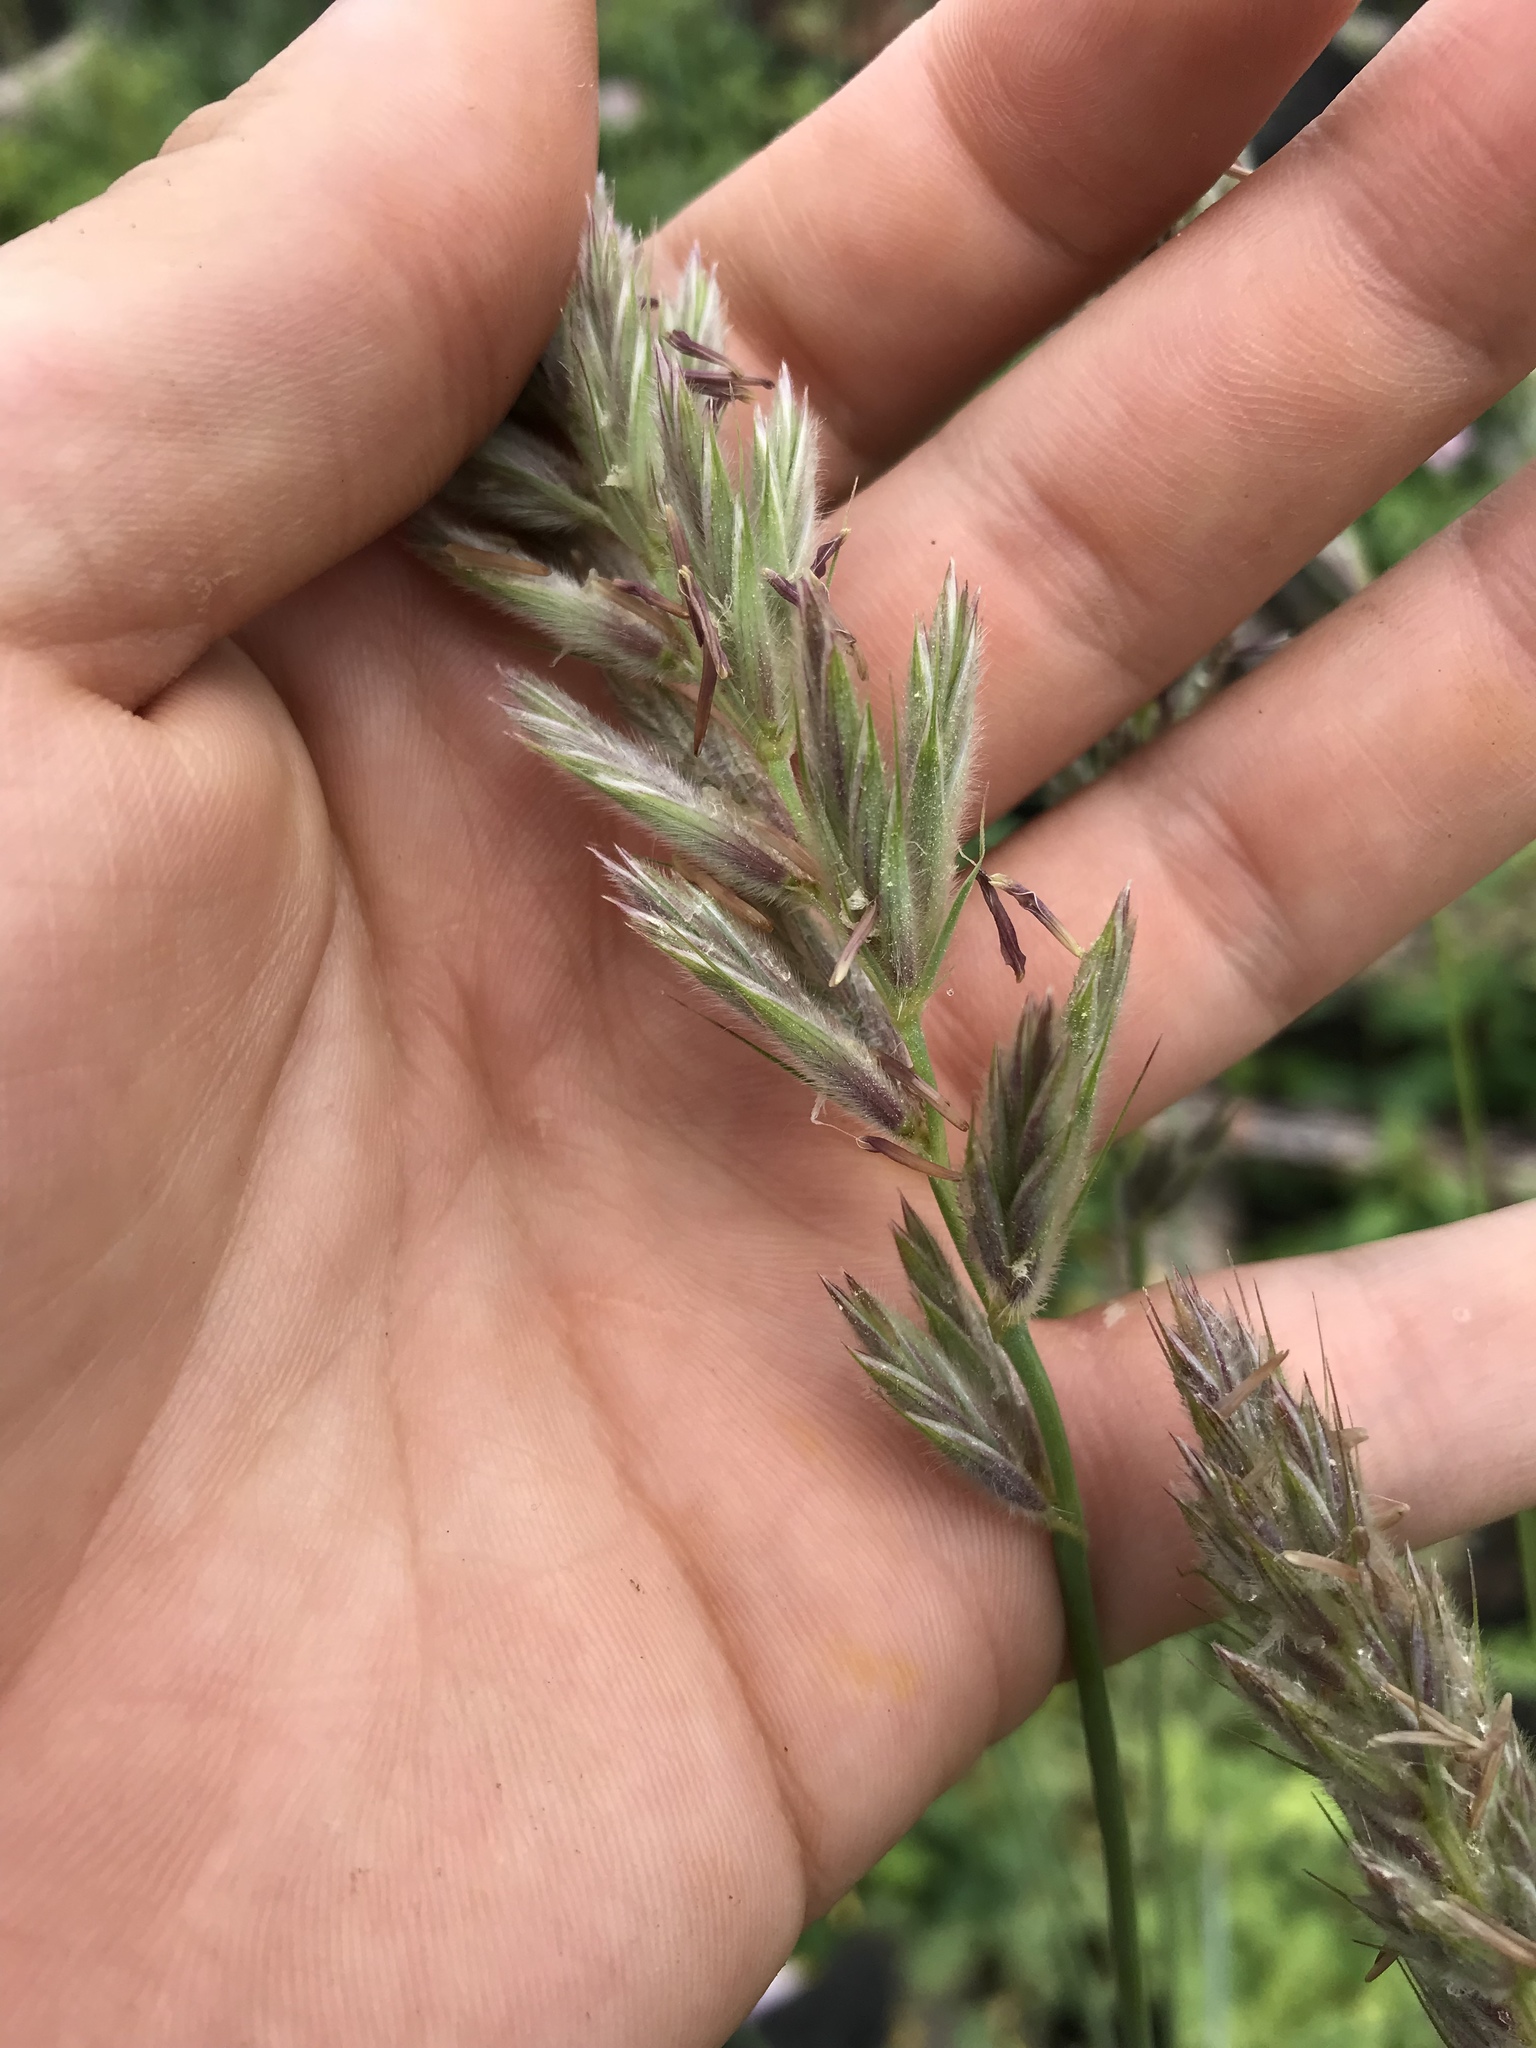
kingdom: Plantae
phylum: Tracheophyta
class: Liliopsida
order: Poales
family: Poaceae
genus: Leymus
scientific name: Leymus innovatus
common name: Boreal wild rye
